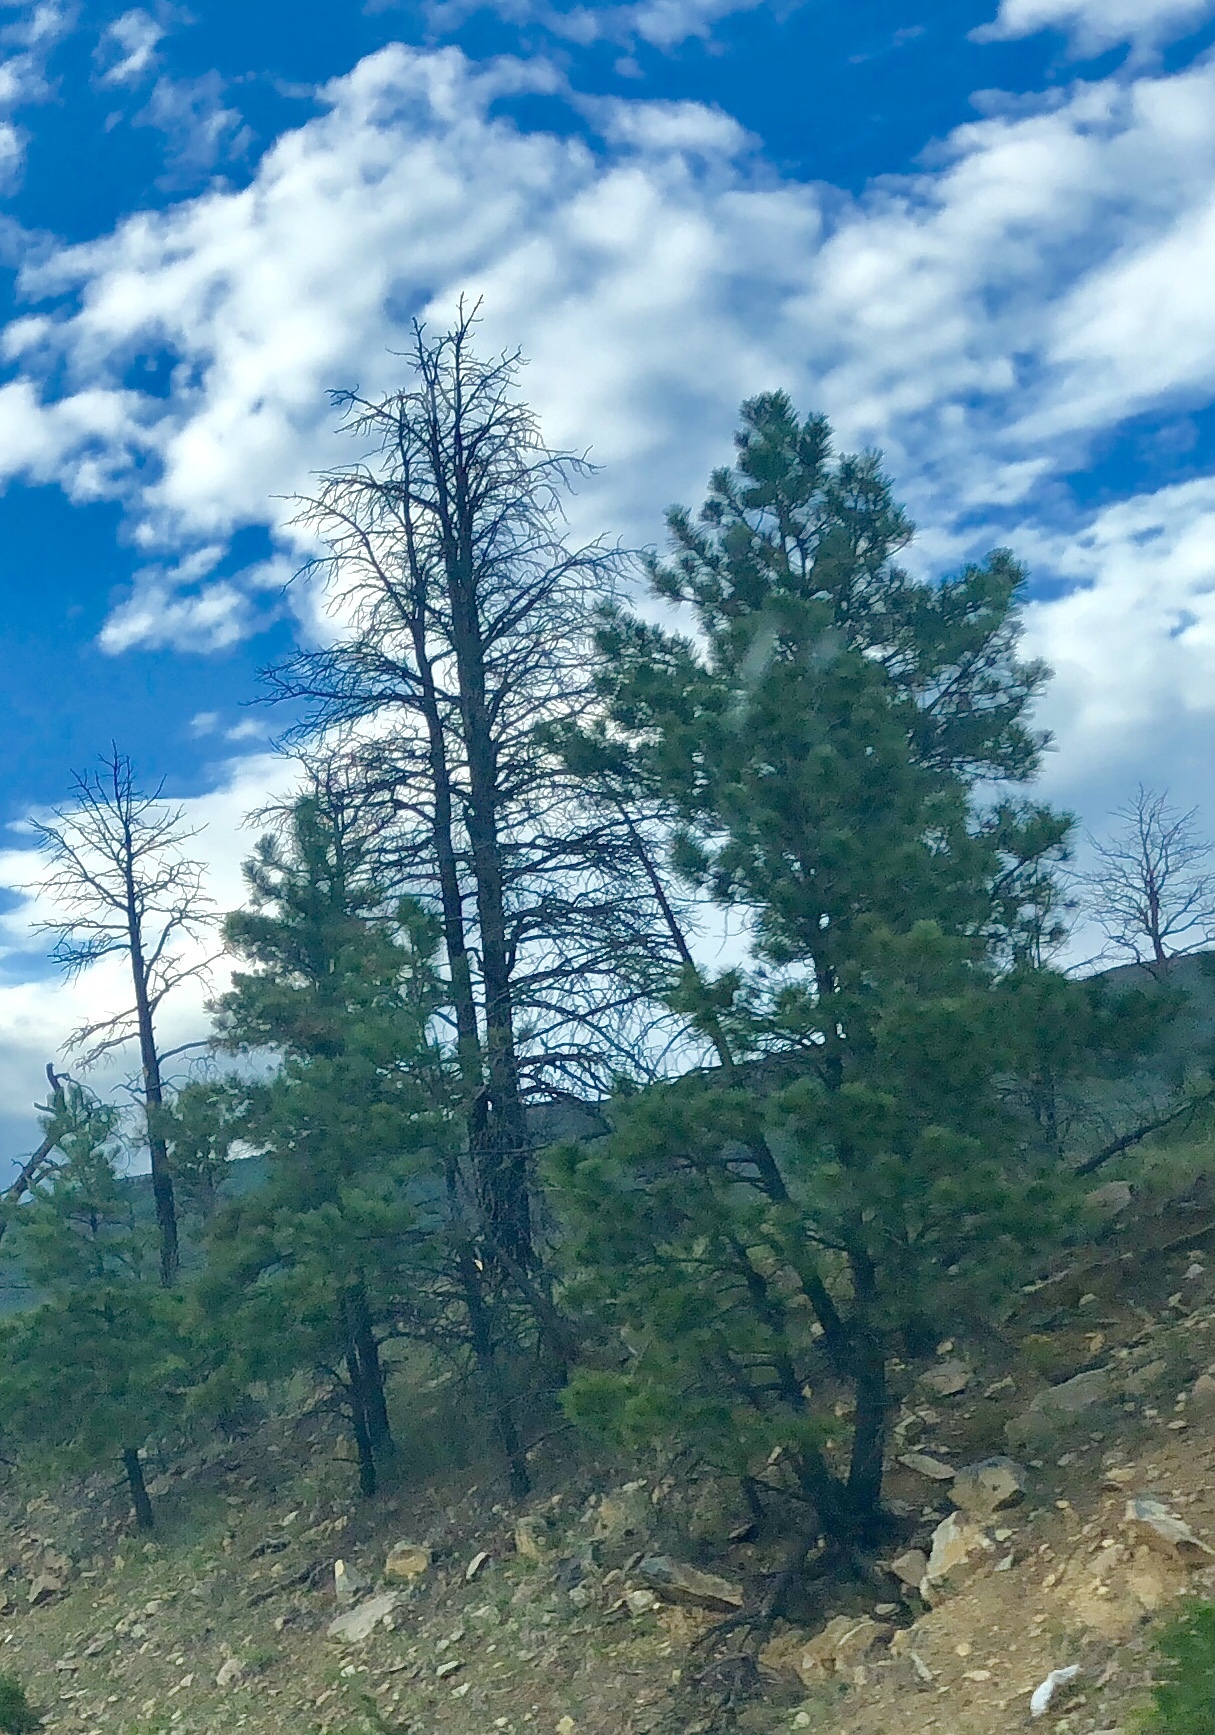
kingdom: Plantae
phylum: Tracheophyta
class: Pinopsida
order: Pinales
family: Pinaceae
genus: Pinus
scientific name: Pinus ponderosa
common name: Western yellow-pine
